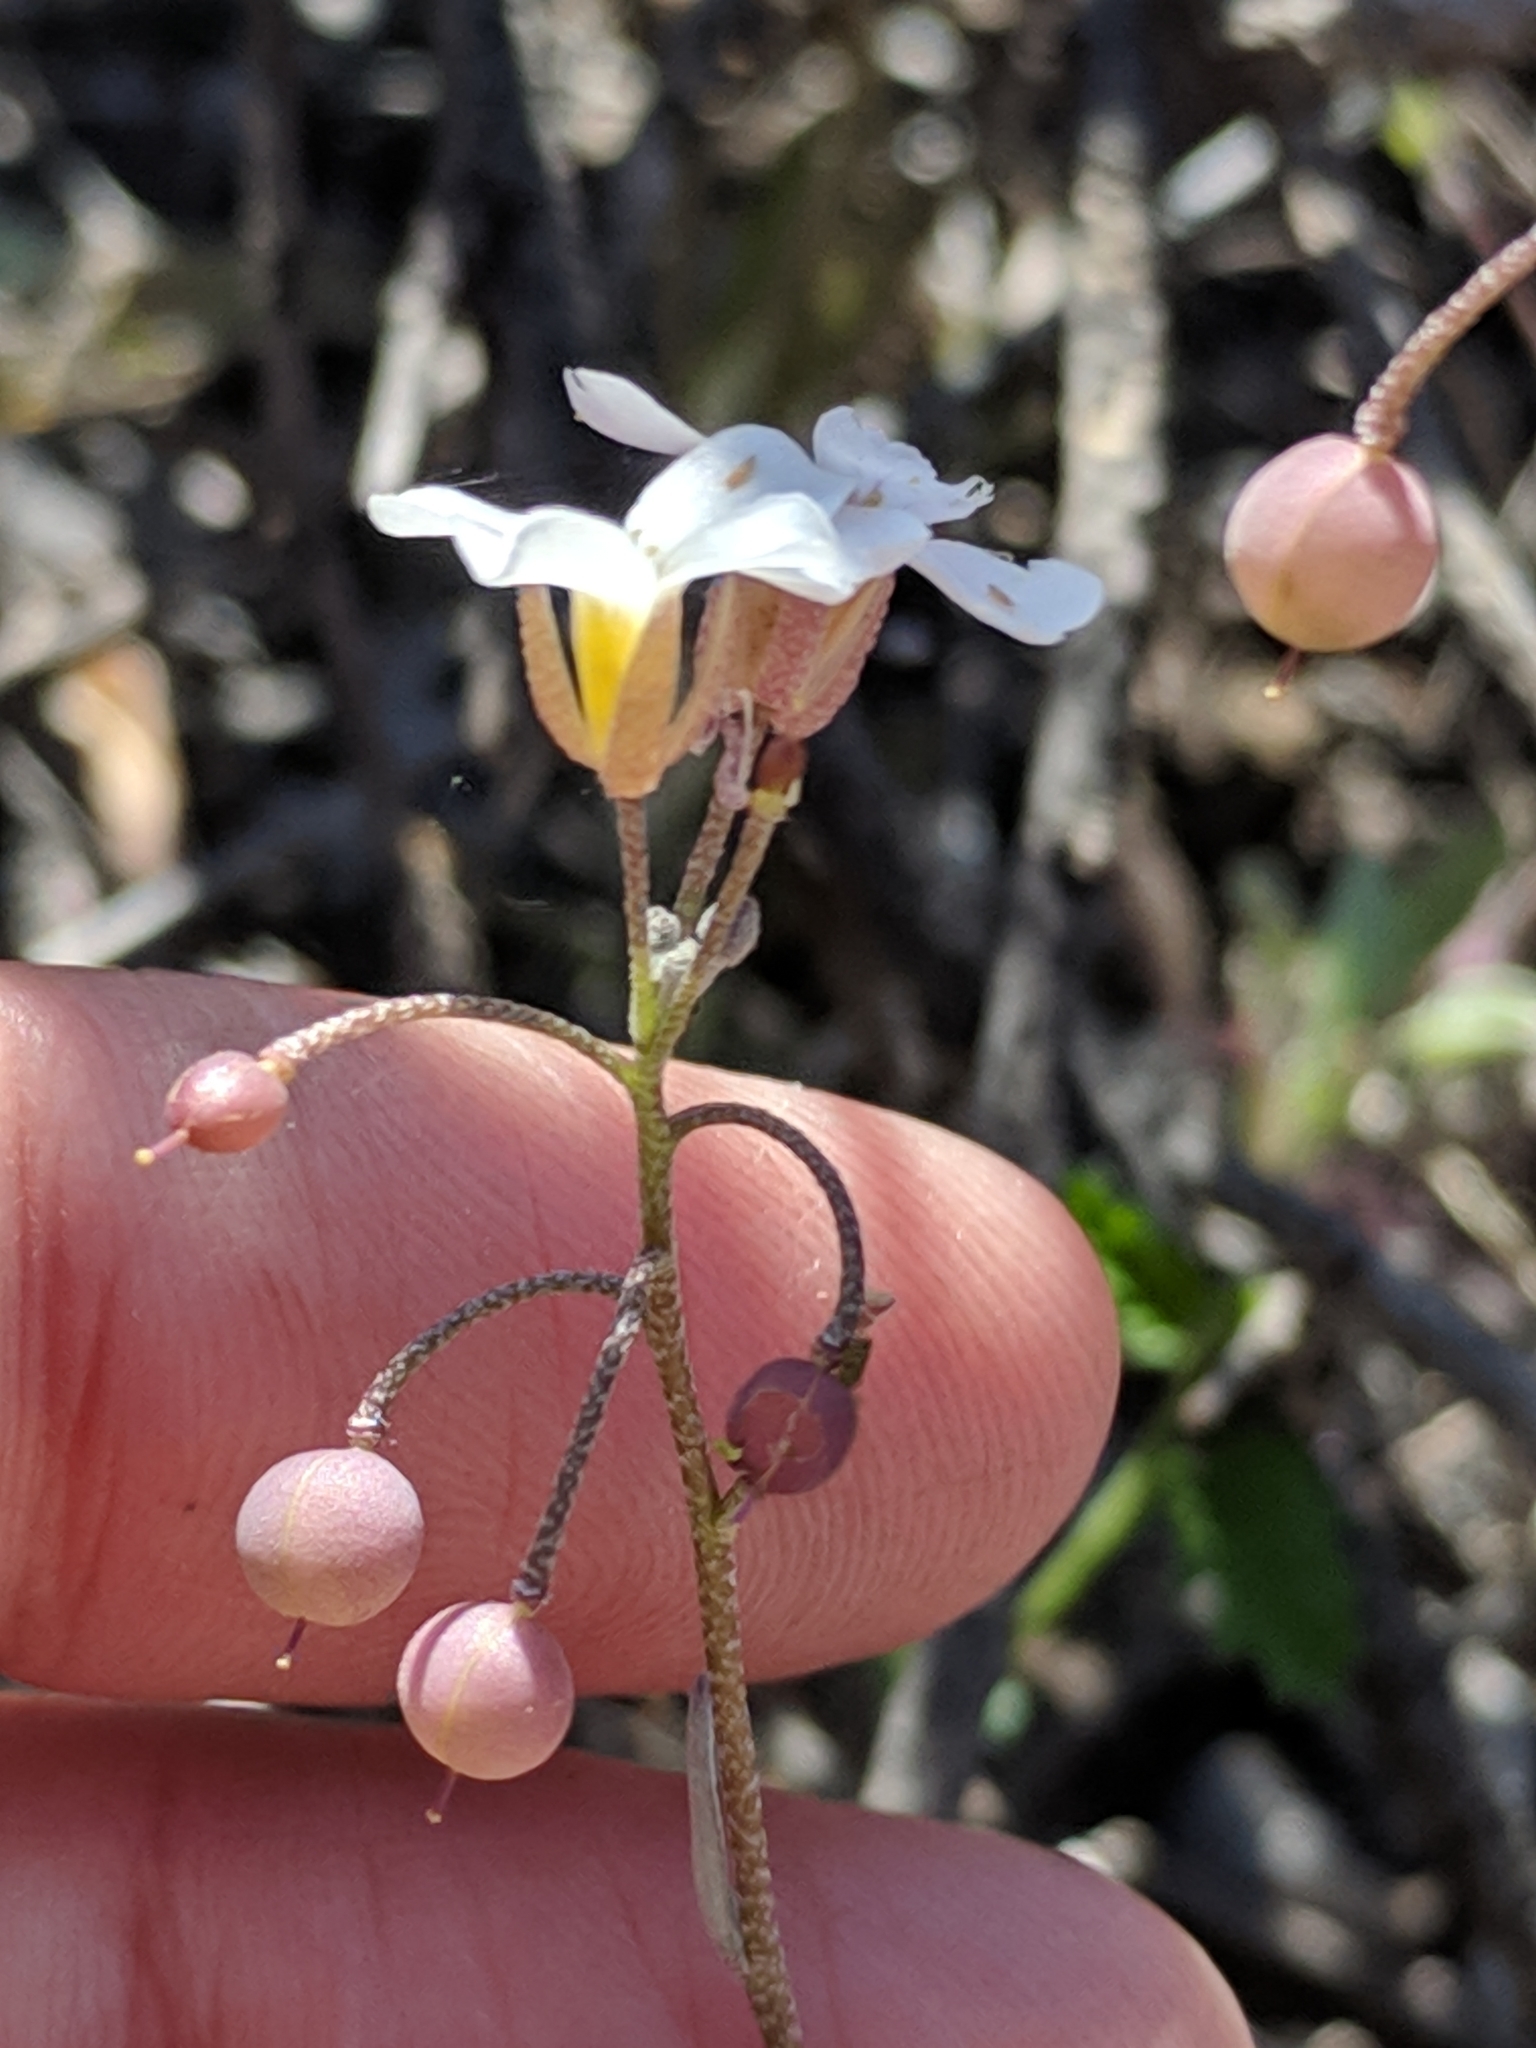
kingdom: Plantae
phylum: Tracheophyta
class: Magnoliopsida
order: Brassicales
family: Brassicaceae
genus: Physaria
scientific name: Physaria purpurea
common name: Rose bladderpod
